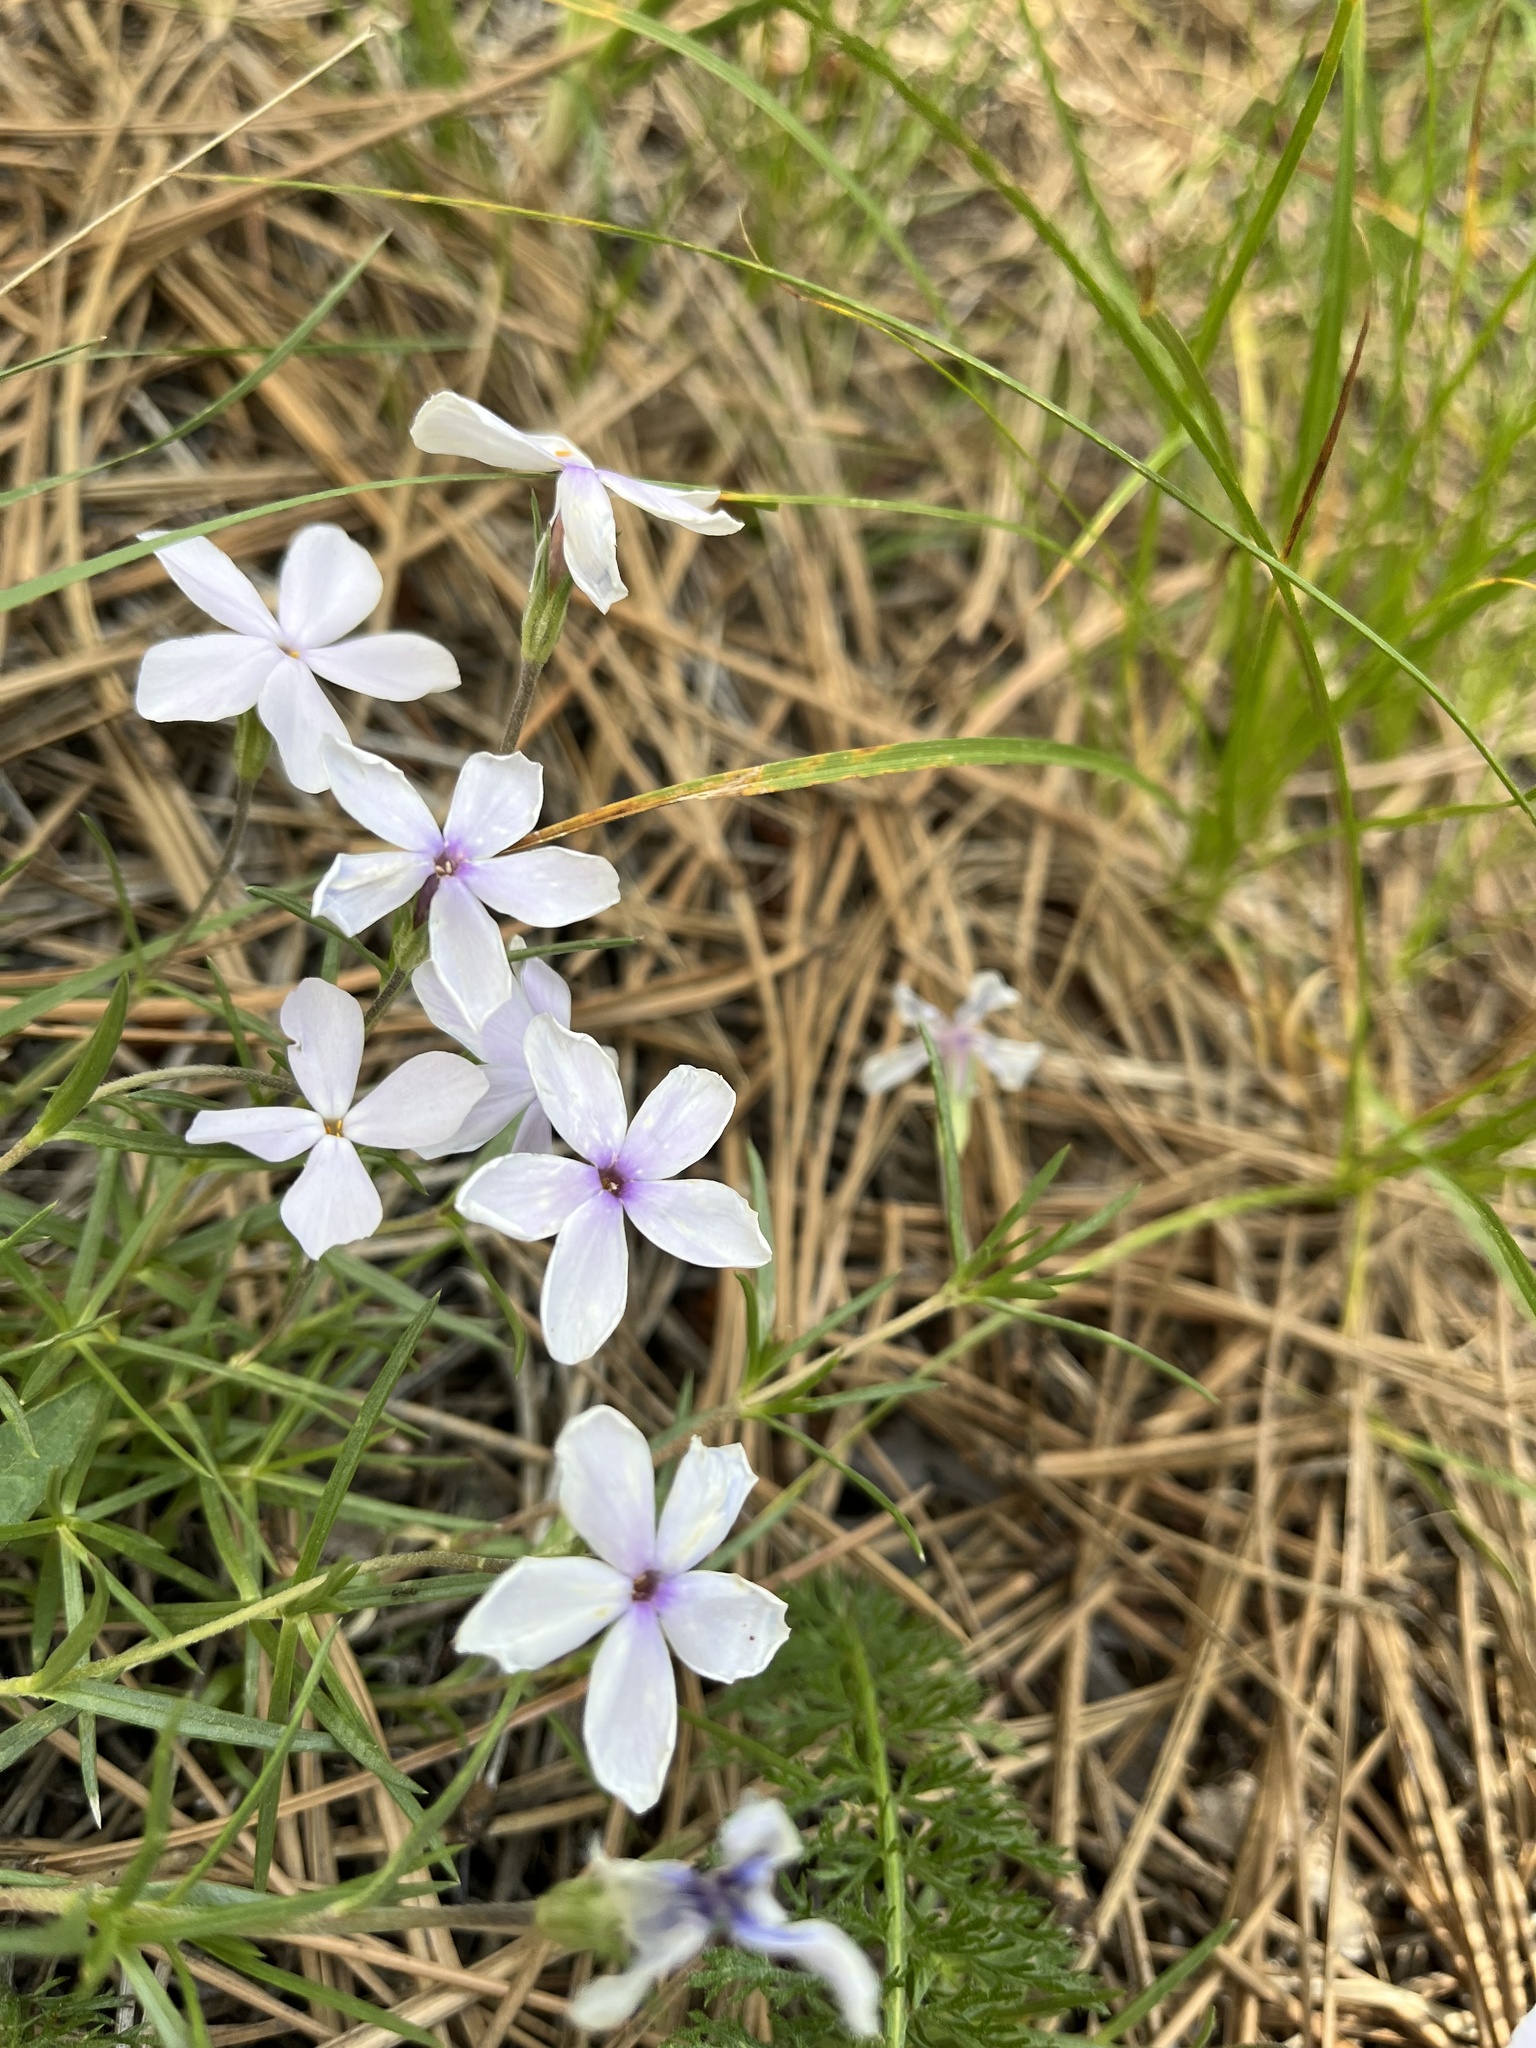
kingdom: Plantae
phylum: Tracheophyta
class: Magnoliopsida
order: Ericales
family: Polemoniaceae
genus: Phlox
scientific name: Phlox multiflora
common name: Rocky mountain phlox
